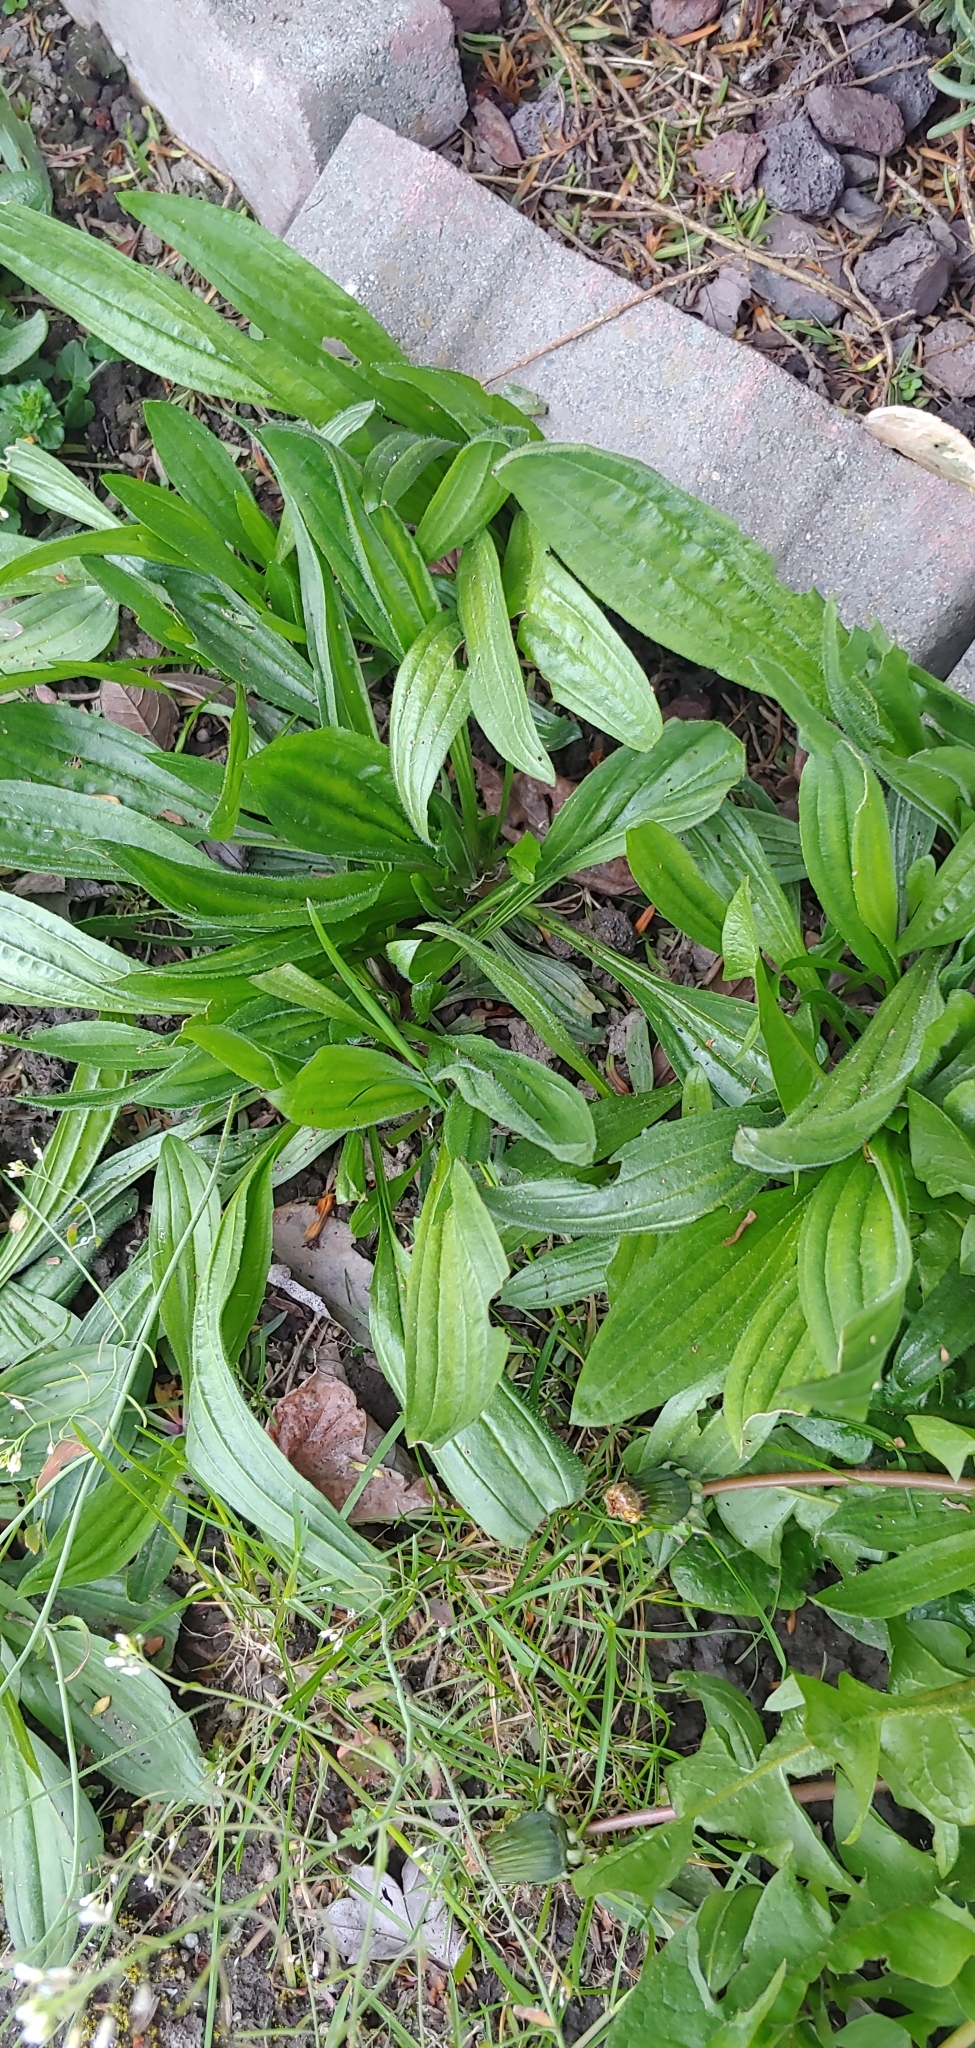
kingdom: Plantae
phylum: Tracheophyta
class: Magnoliopsida
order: Lamiales
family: Plantaginaceae
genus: Plantago
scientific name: Plantago lanceolata
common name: Ribwort plantain
